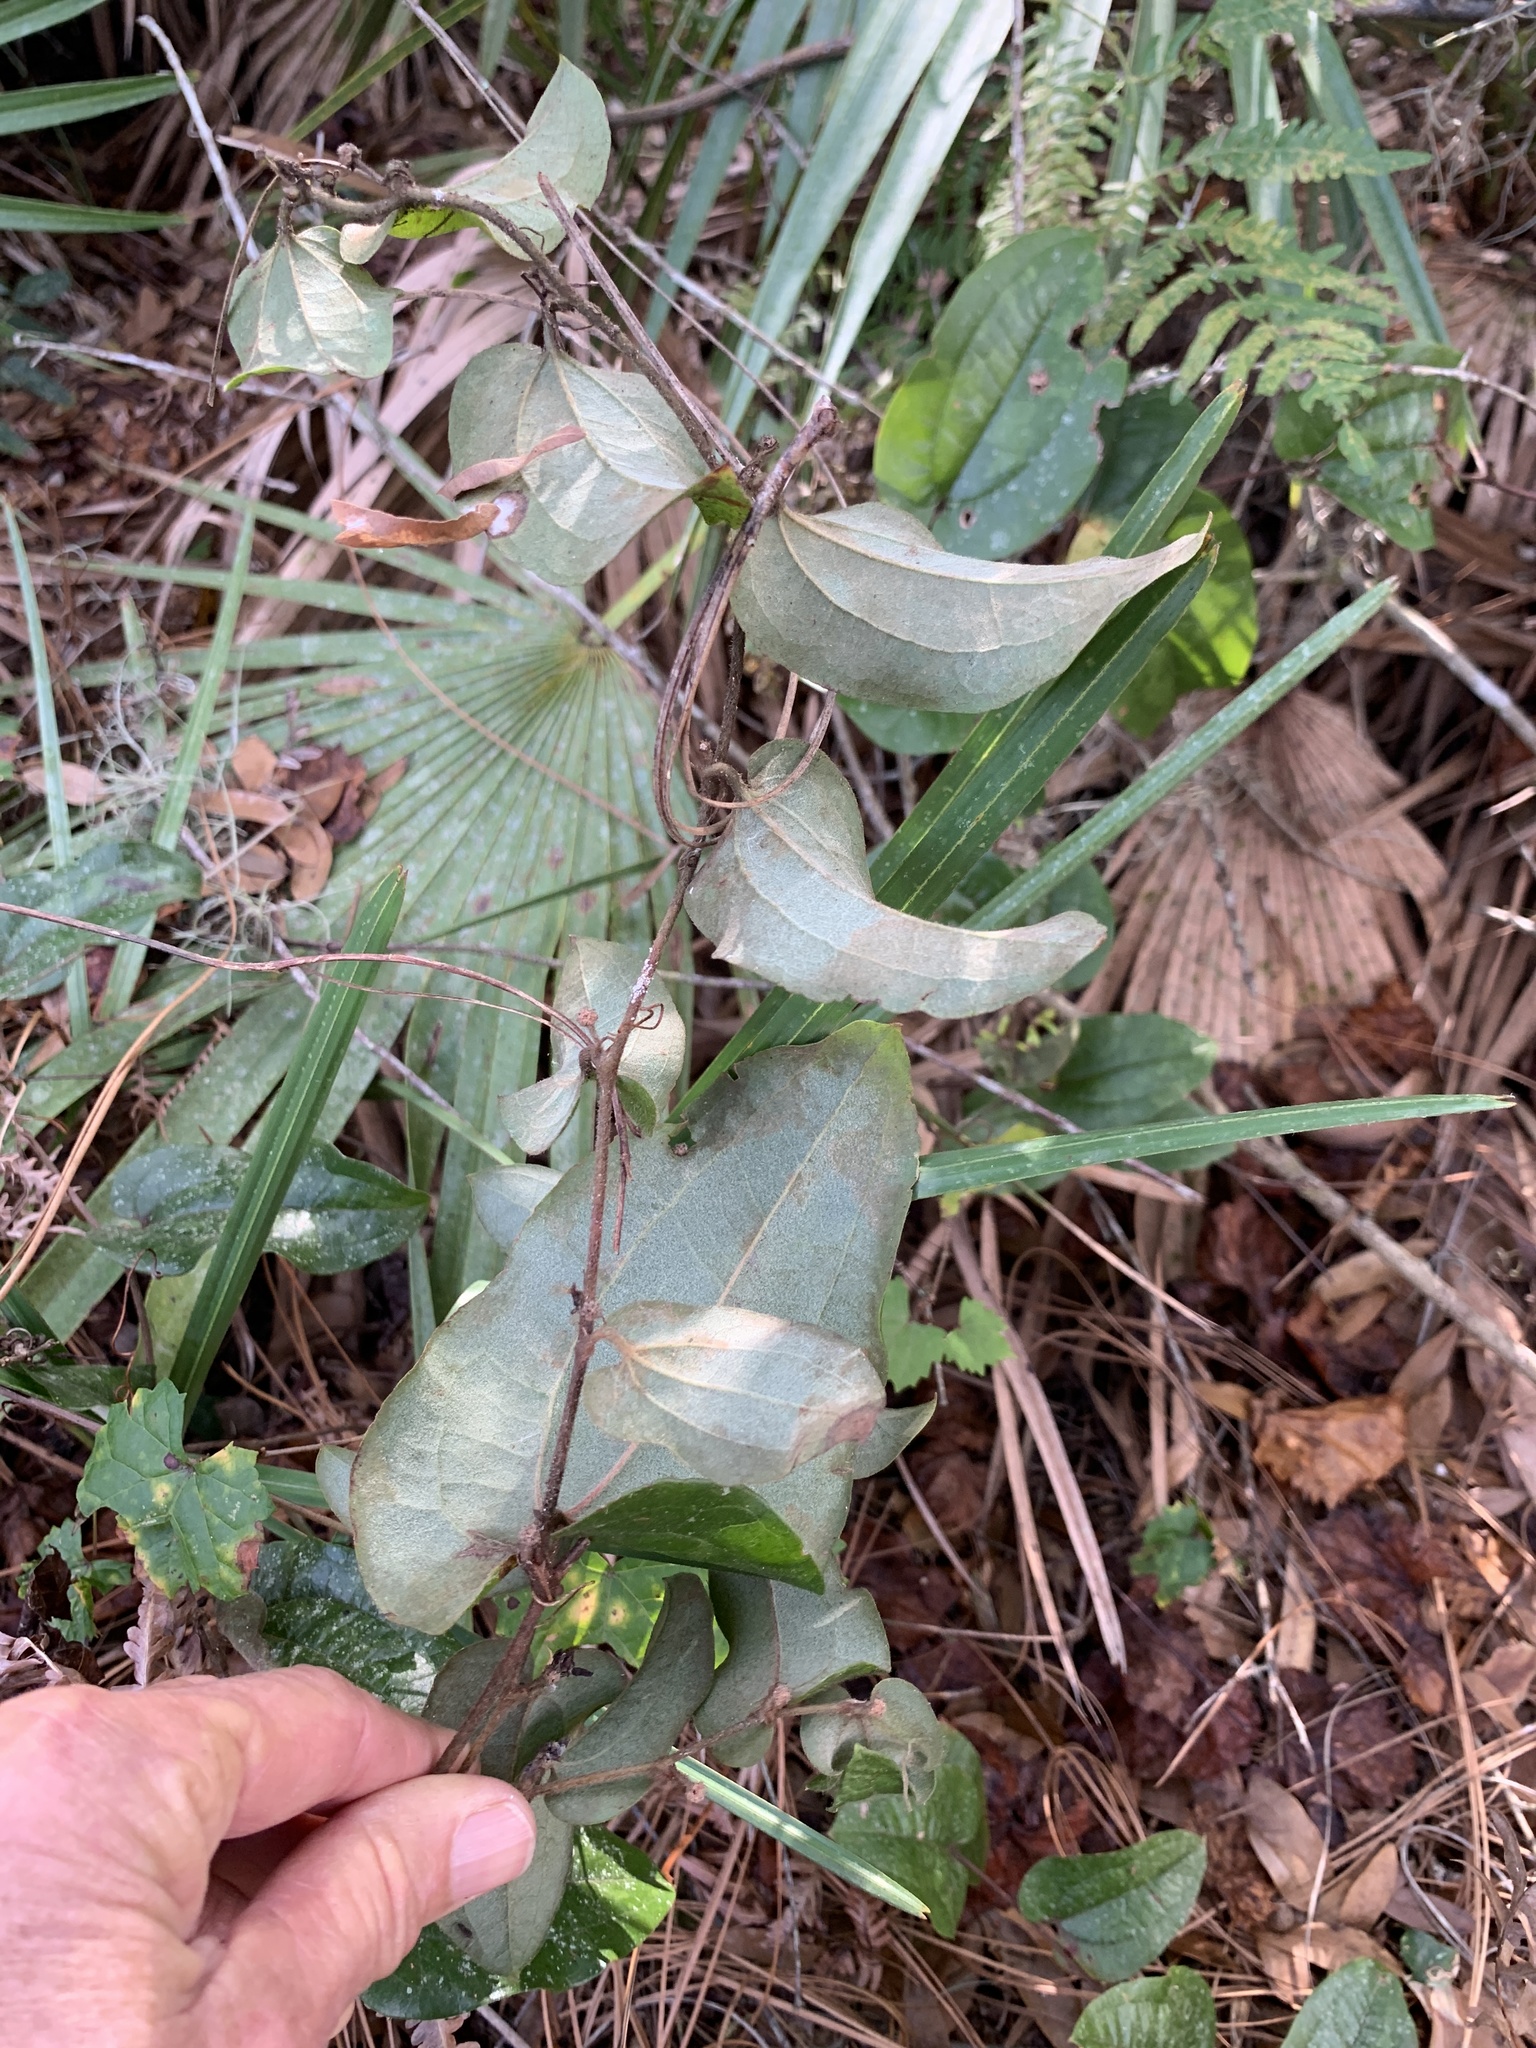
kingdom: Plantae
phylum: Tracheophyta
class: Liliopsida
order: Liliales
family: Smilacaceae
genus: Smilax
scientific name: Smilax pumila
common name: Sarsaparilla-vine
